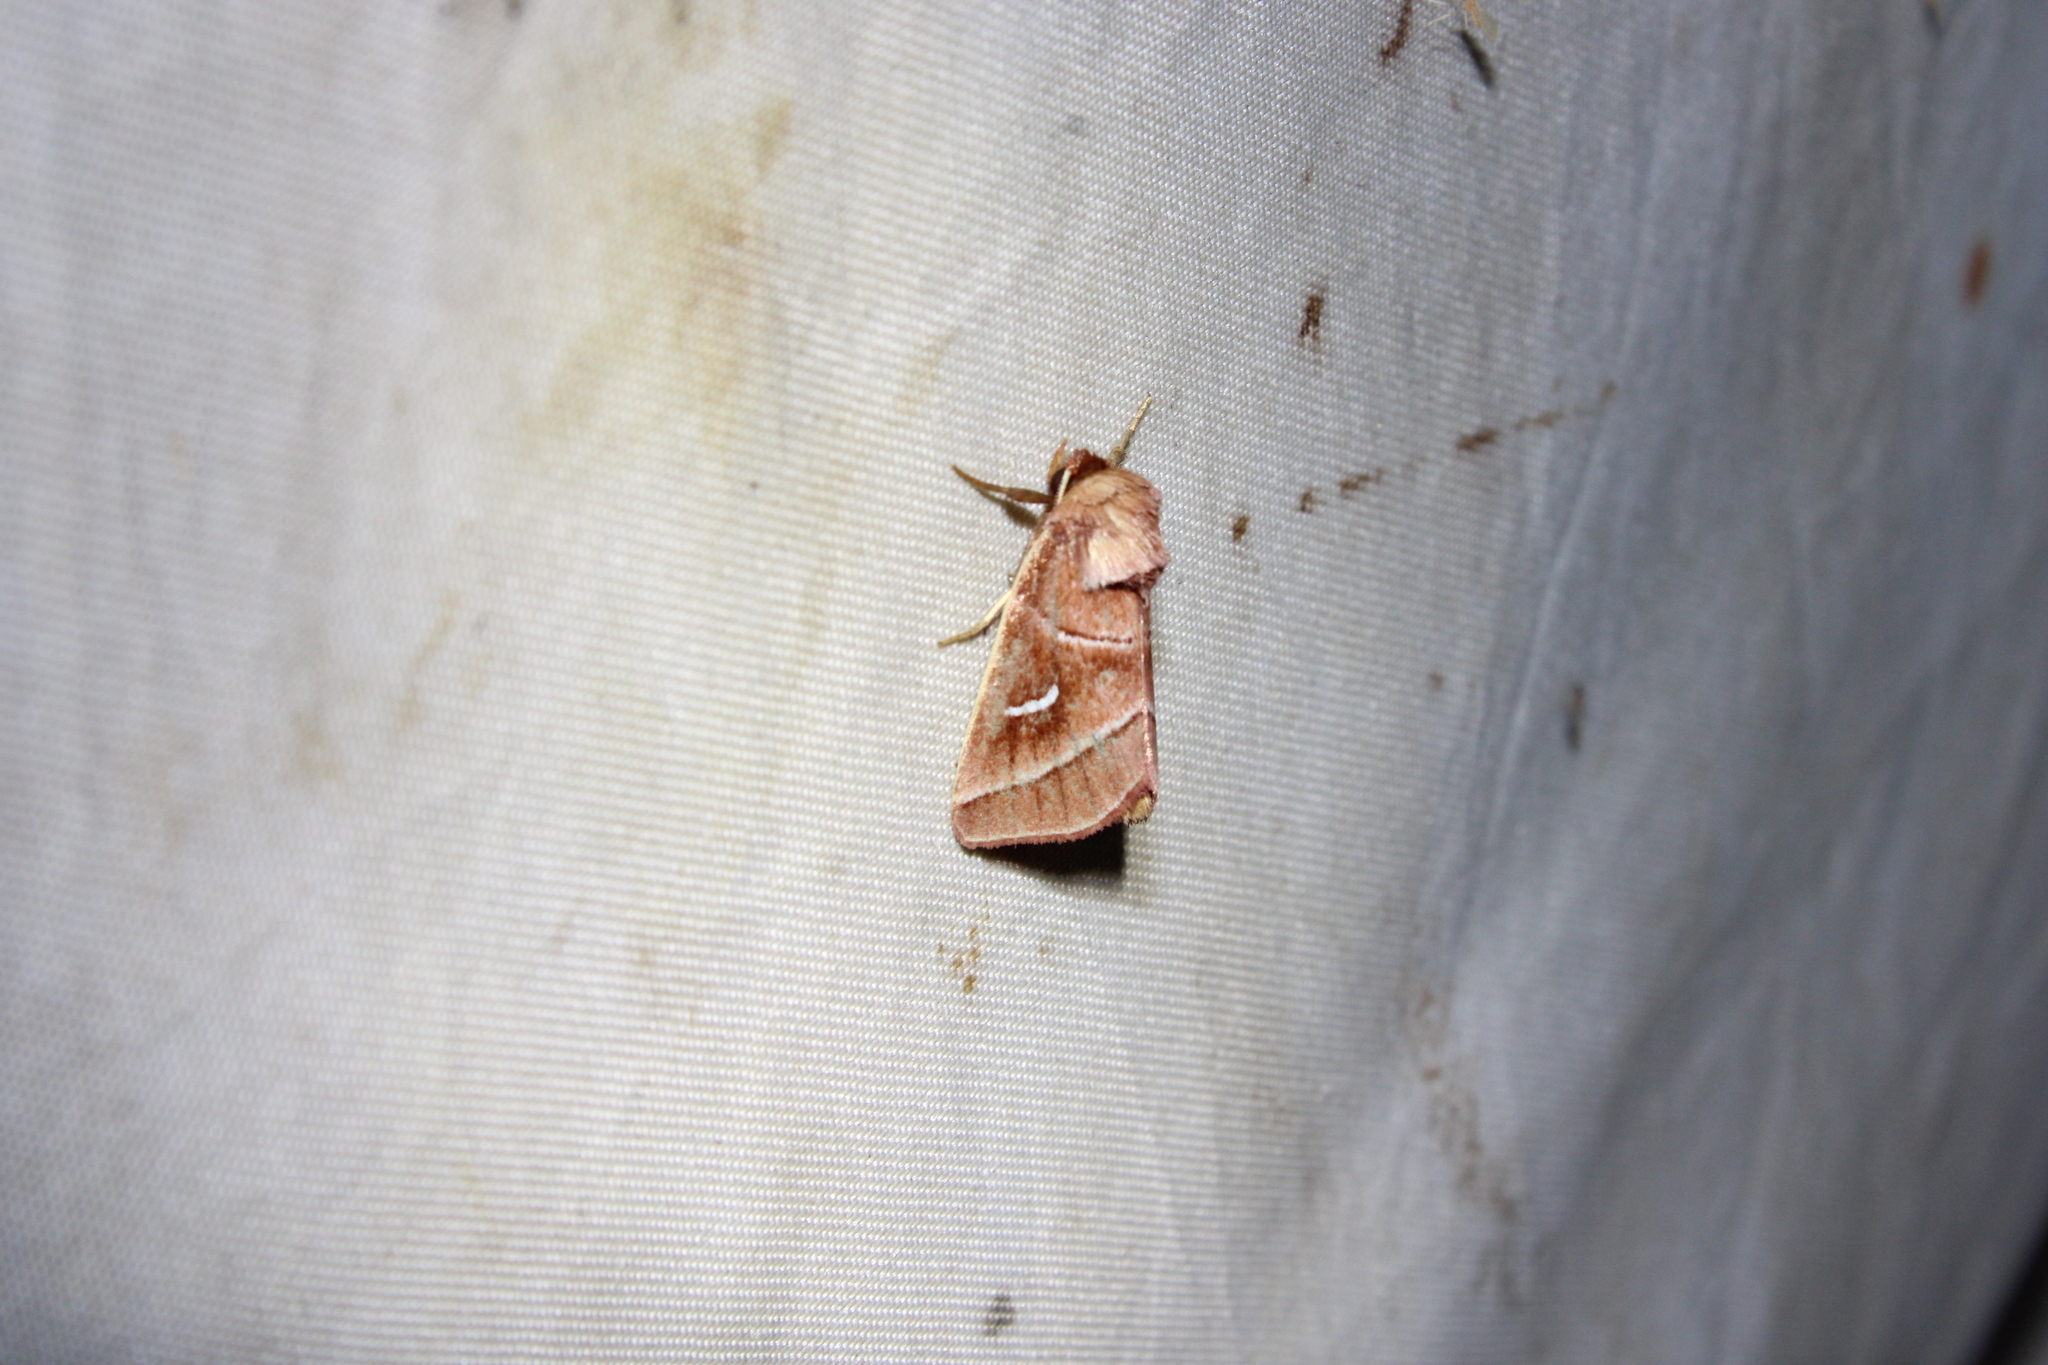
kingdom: Animalia
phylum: Arthropoda
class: Insecta
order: Lepidoptera
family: Noctuidae
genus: Fagitana
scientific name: Fagitana littera
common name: Marsh fern moth
